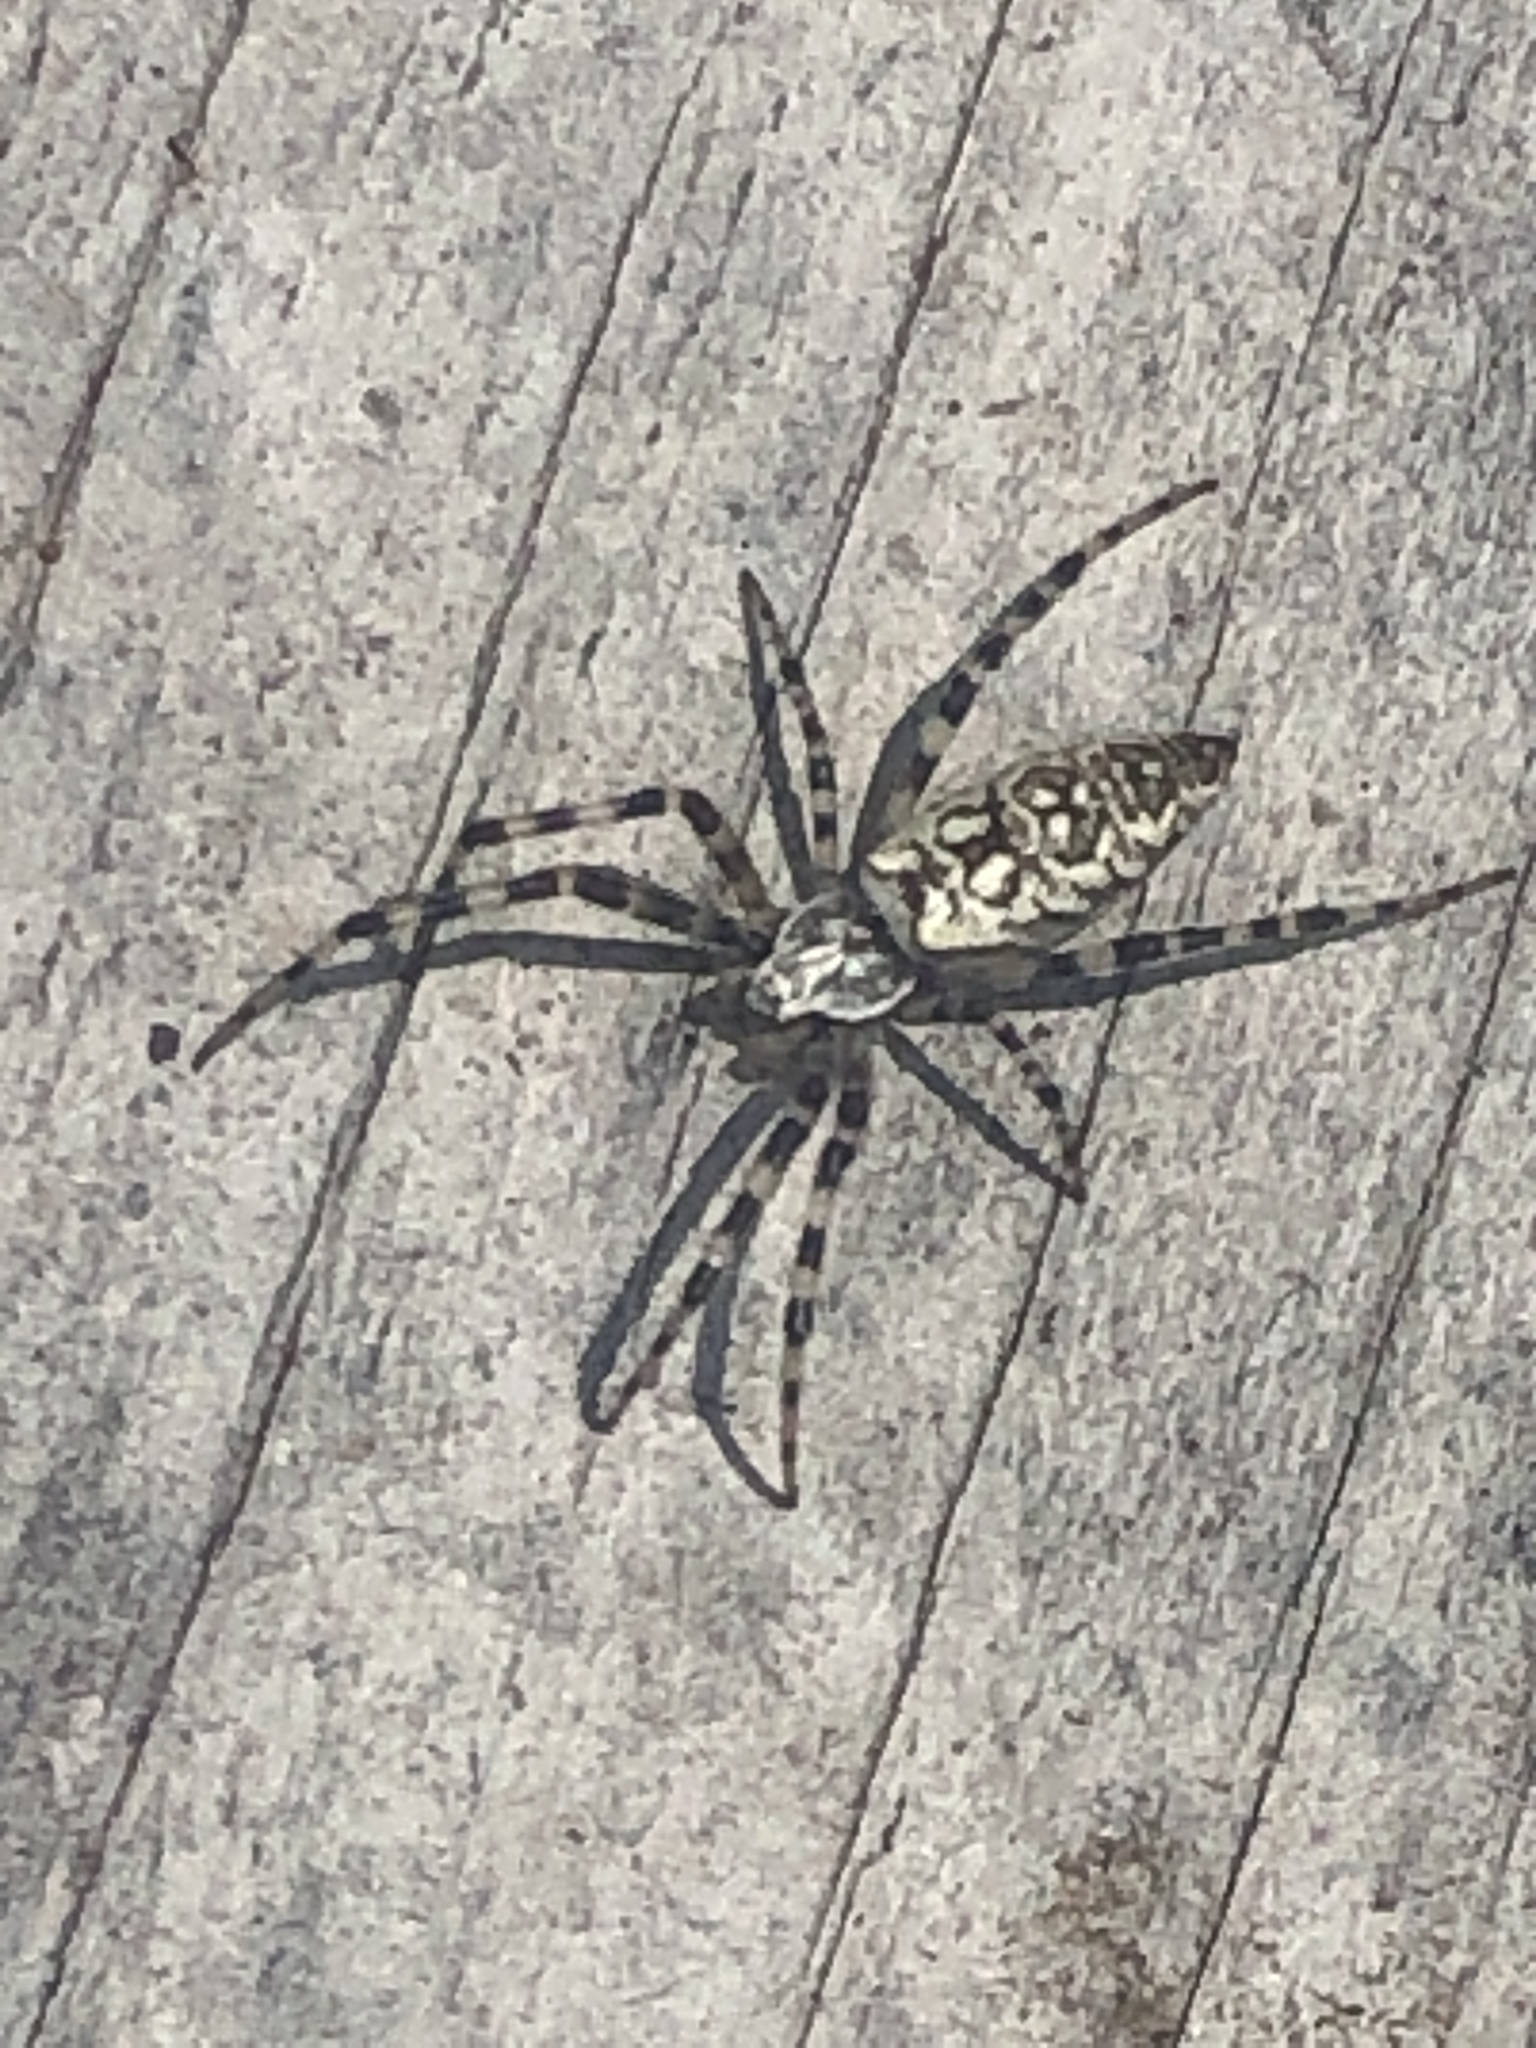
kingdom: Animalia
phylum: Arthropoda
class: Arachnida
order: Araneae
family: Araneidae
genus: Argiope
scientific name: Argiope aurantia
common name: Orb weavers
